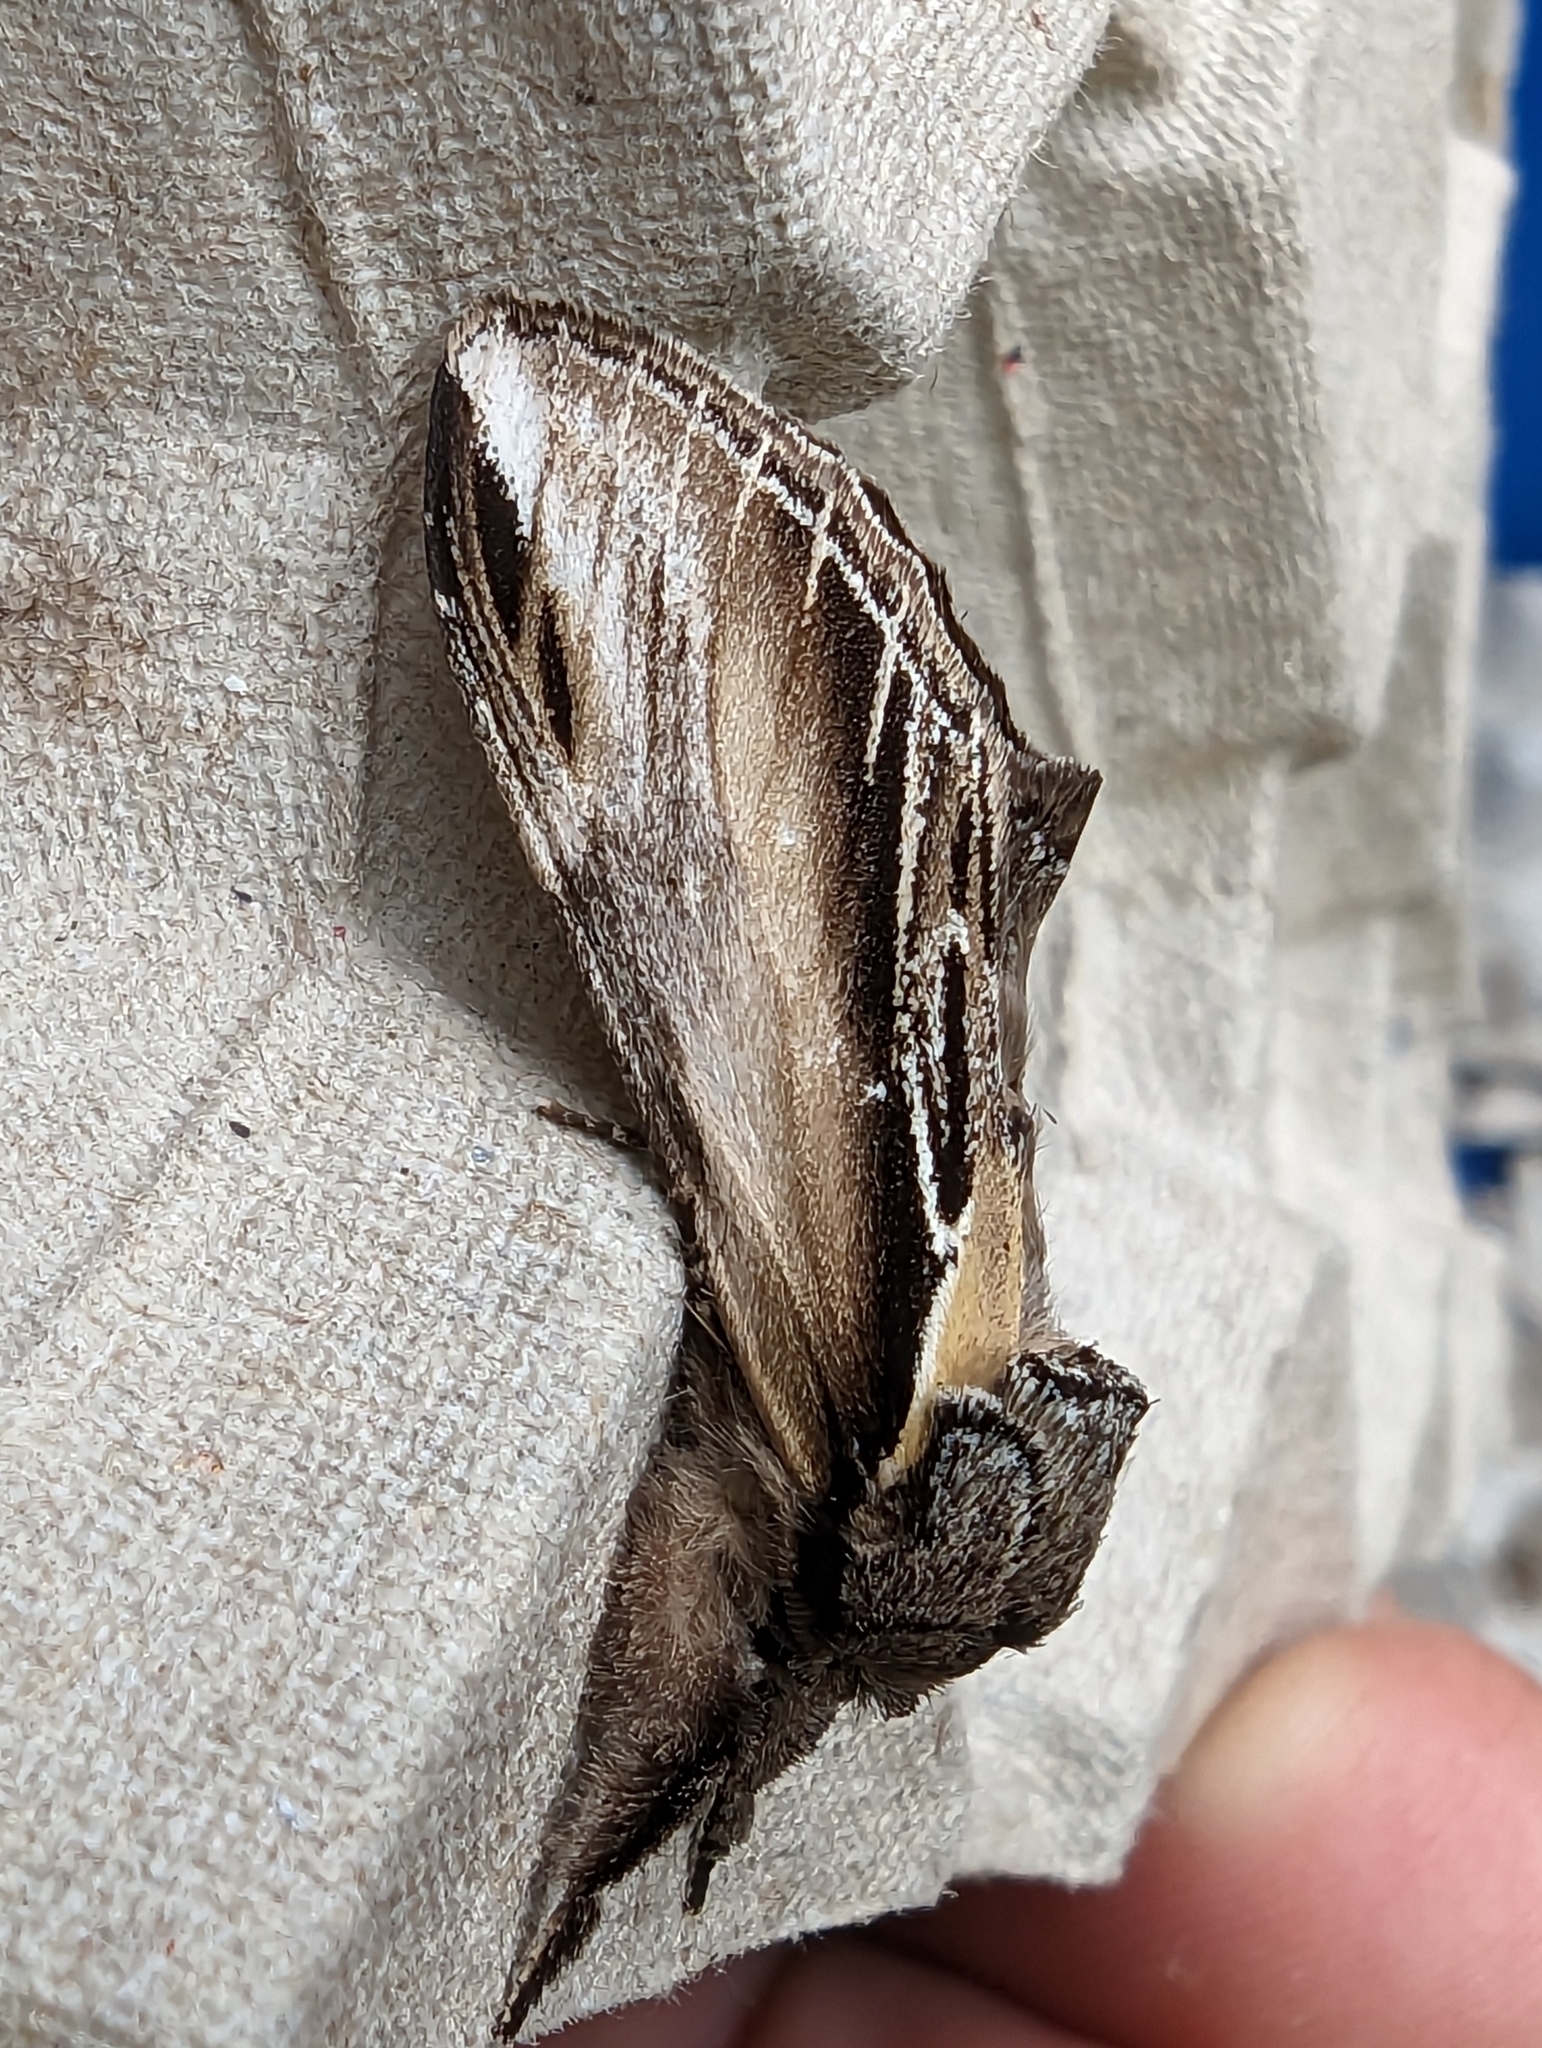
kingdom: Animalia
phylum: Arthropoda
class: Insecta
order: Lepidoptera
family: Notodontidae
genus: Pheosia
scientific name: Pheosia tremula
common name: Swallow prominent
